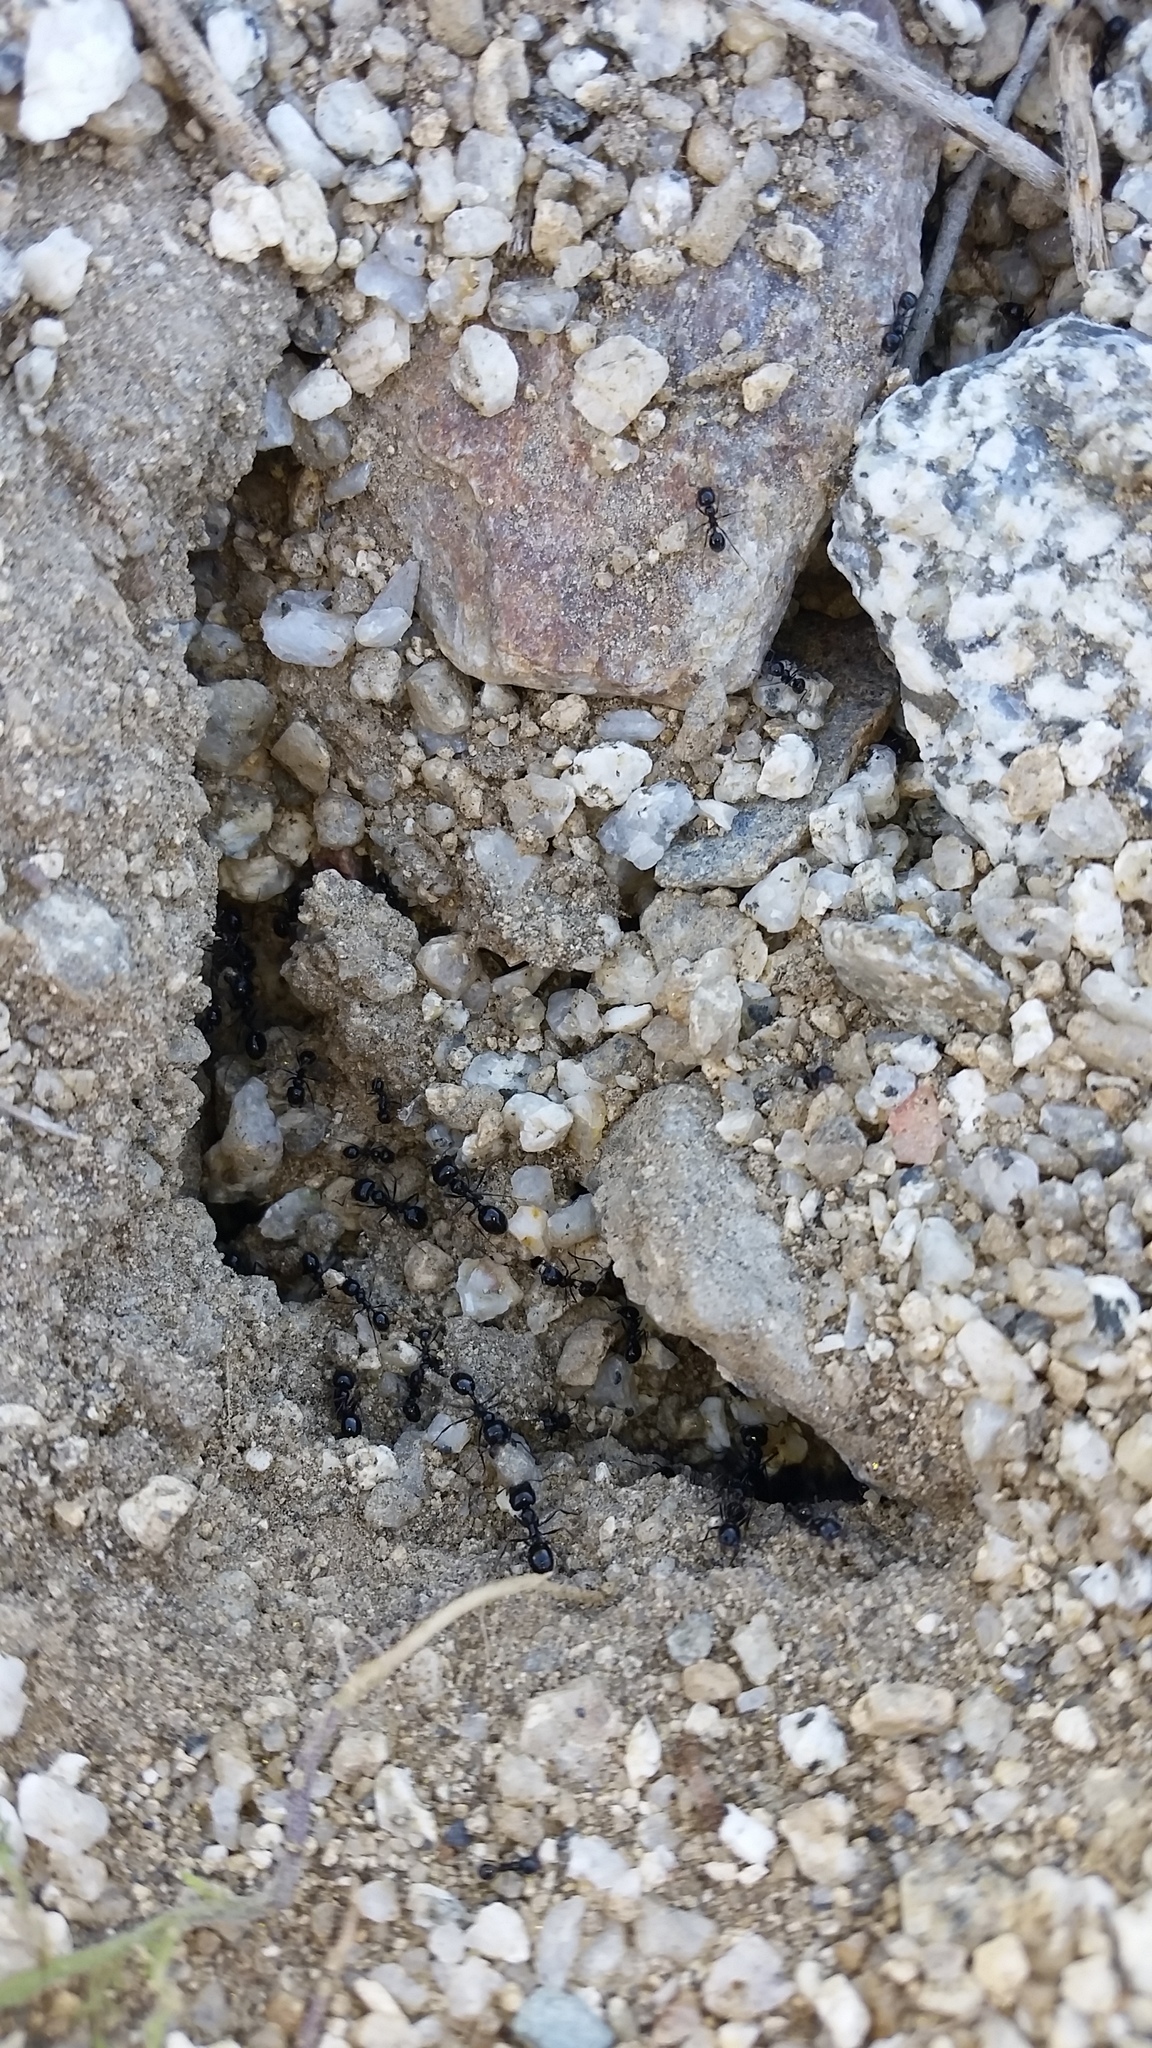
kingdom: Animalia
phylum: Arthropoda
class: Insecta
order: Hymenoptera
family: Formicidae
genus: Messor
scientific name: Messor pergandei
